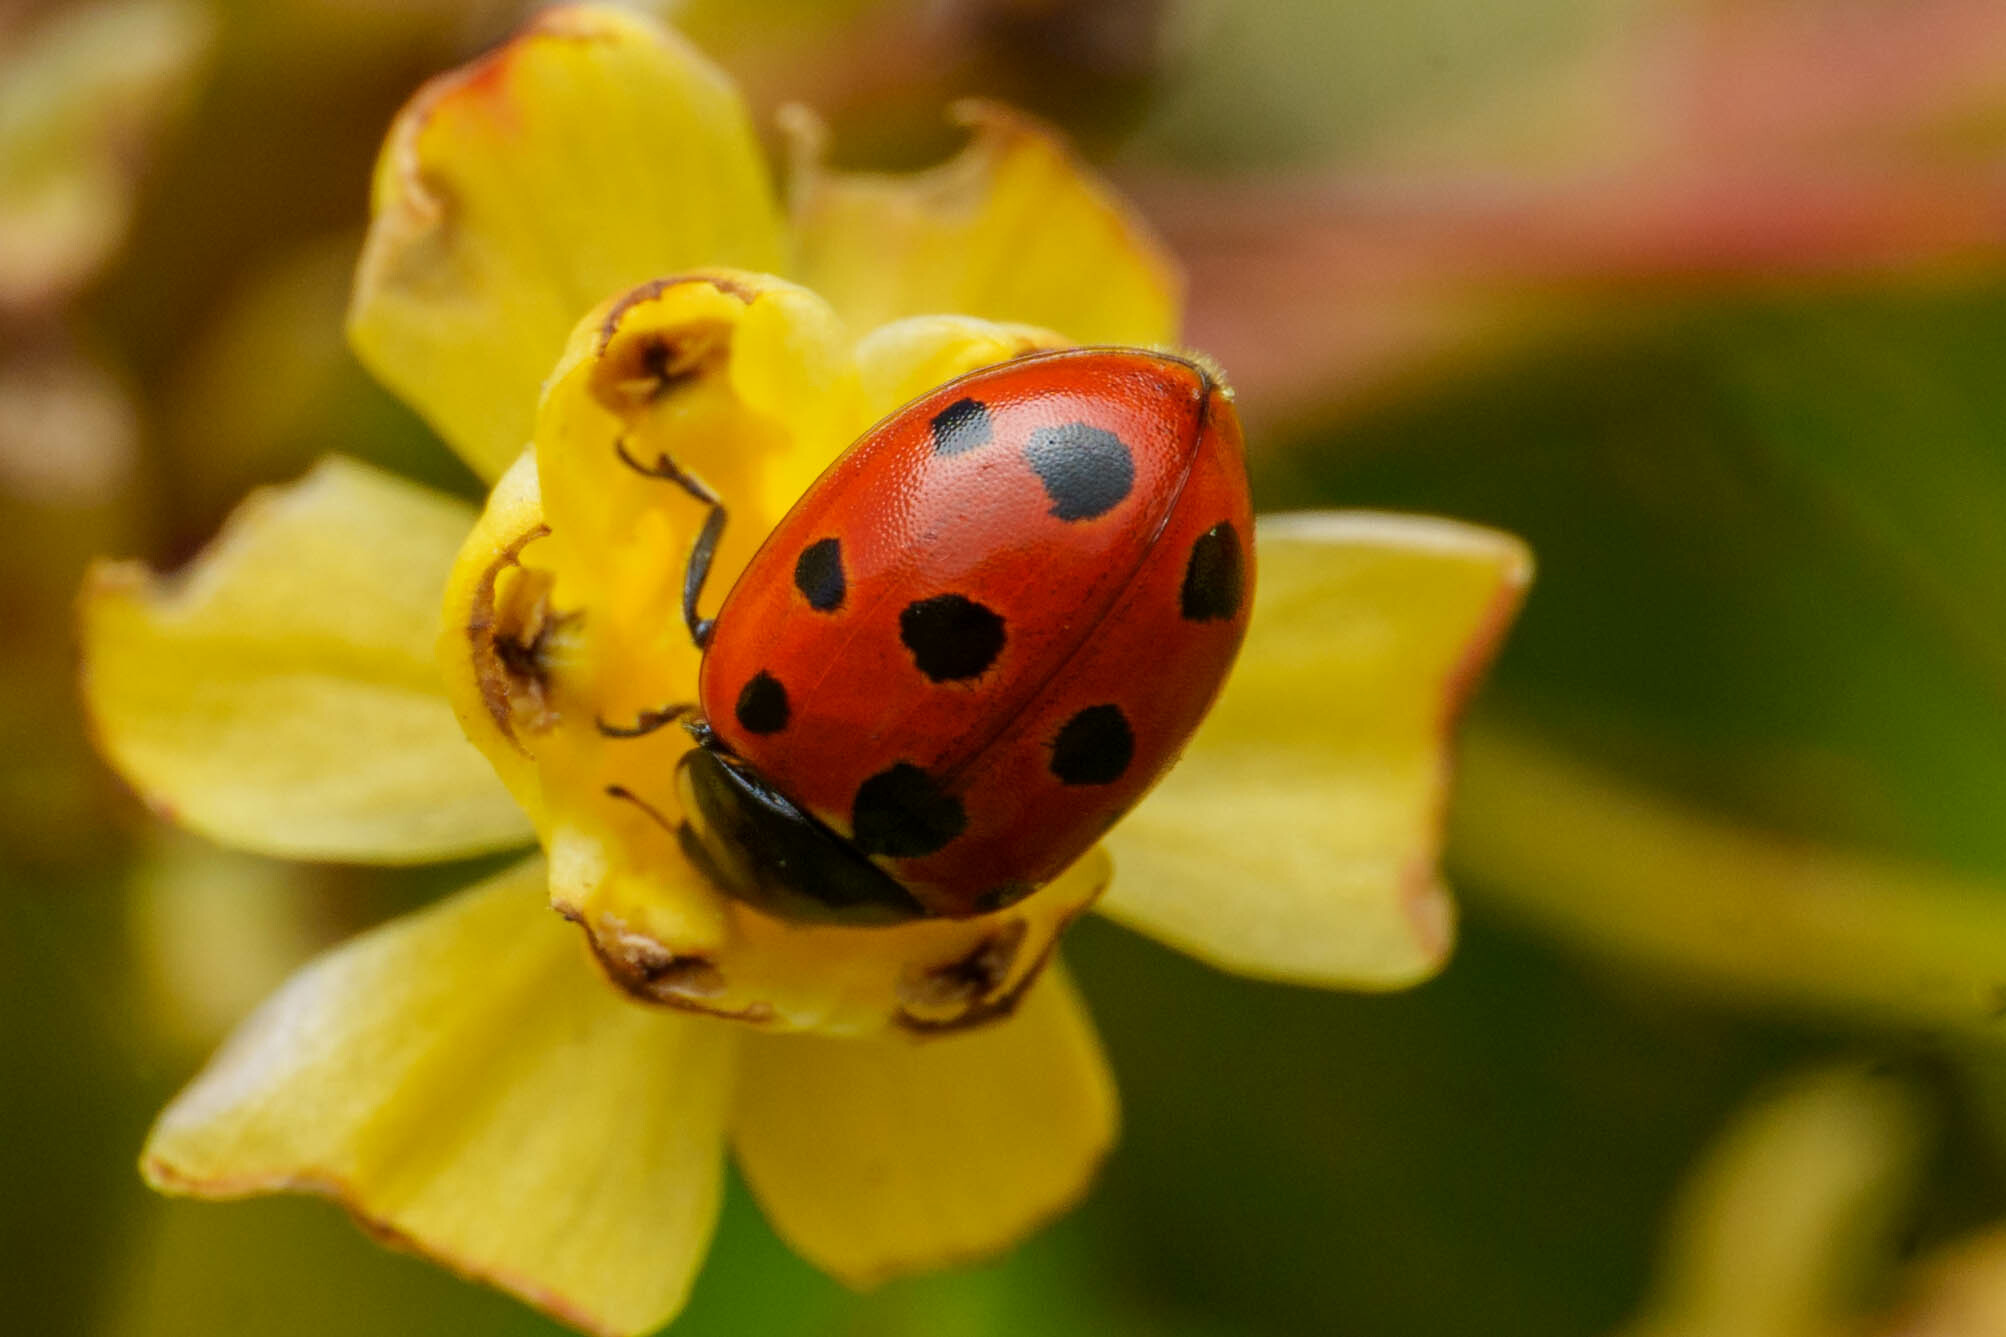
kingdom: Animalia
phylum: Arthropoda
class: Insecta
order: Coleoptera
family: Coccinellidae
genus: Coccinella
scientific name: Coccinella undecimpunctata
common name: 11-spot ladybird
